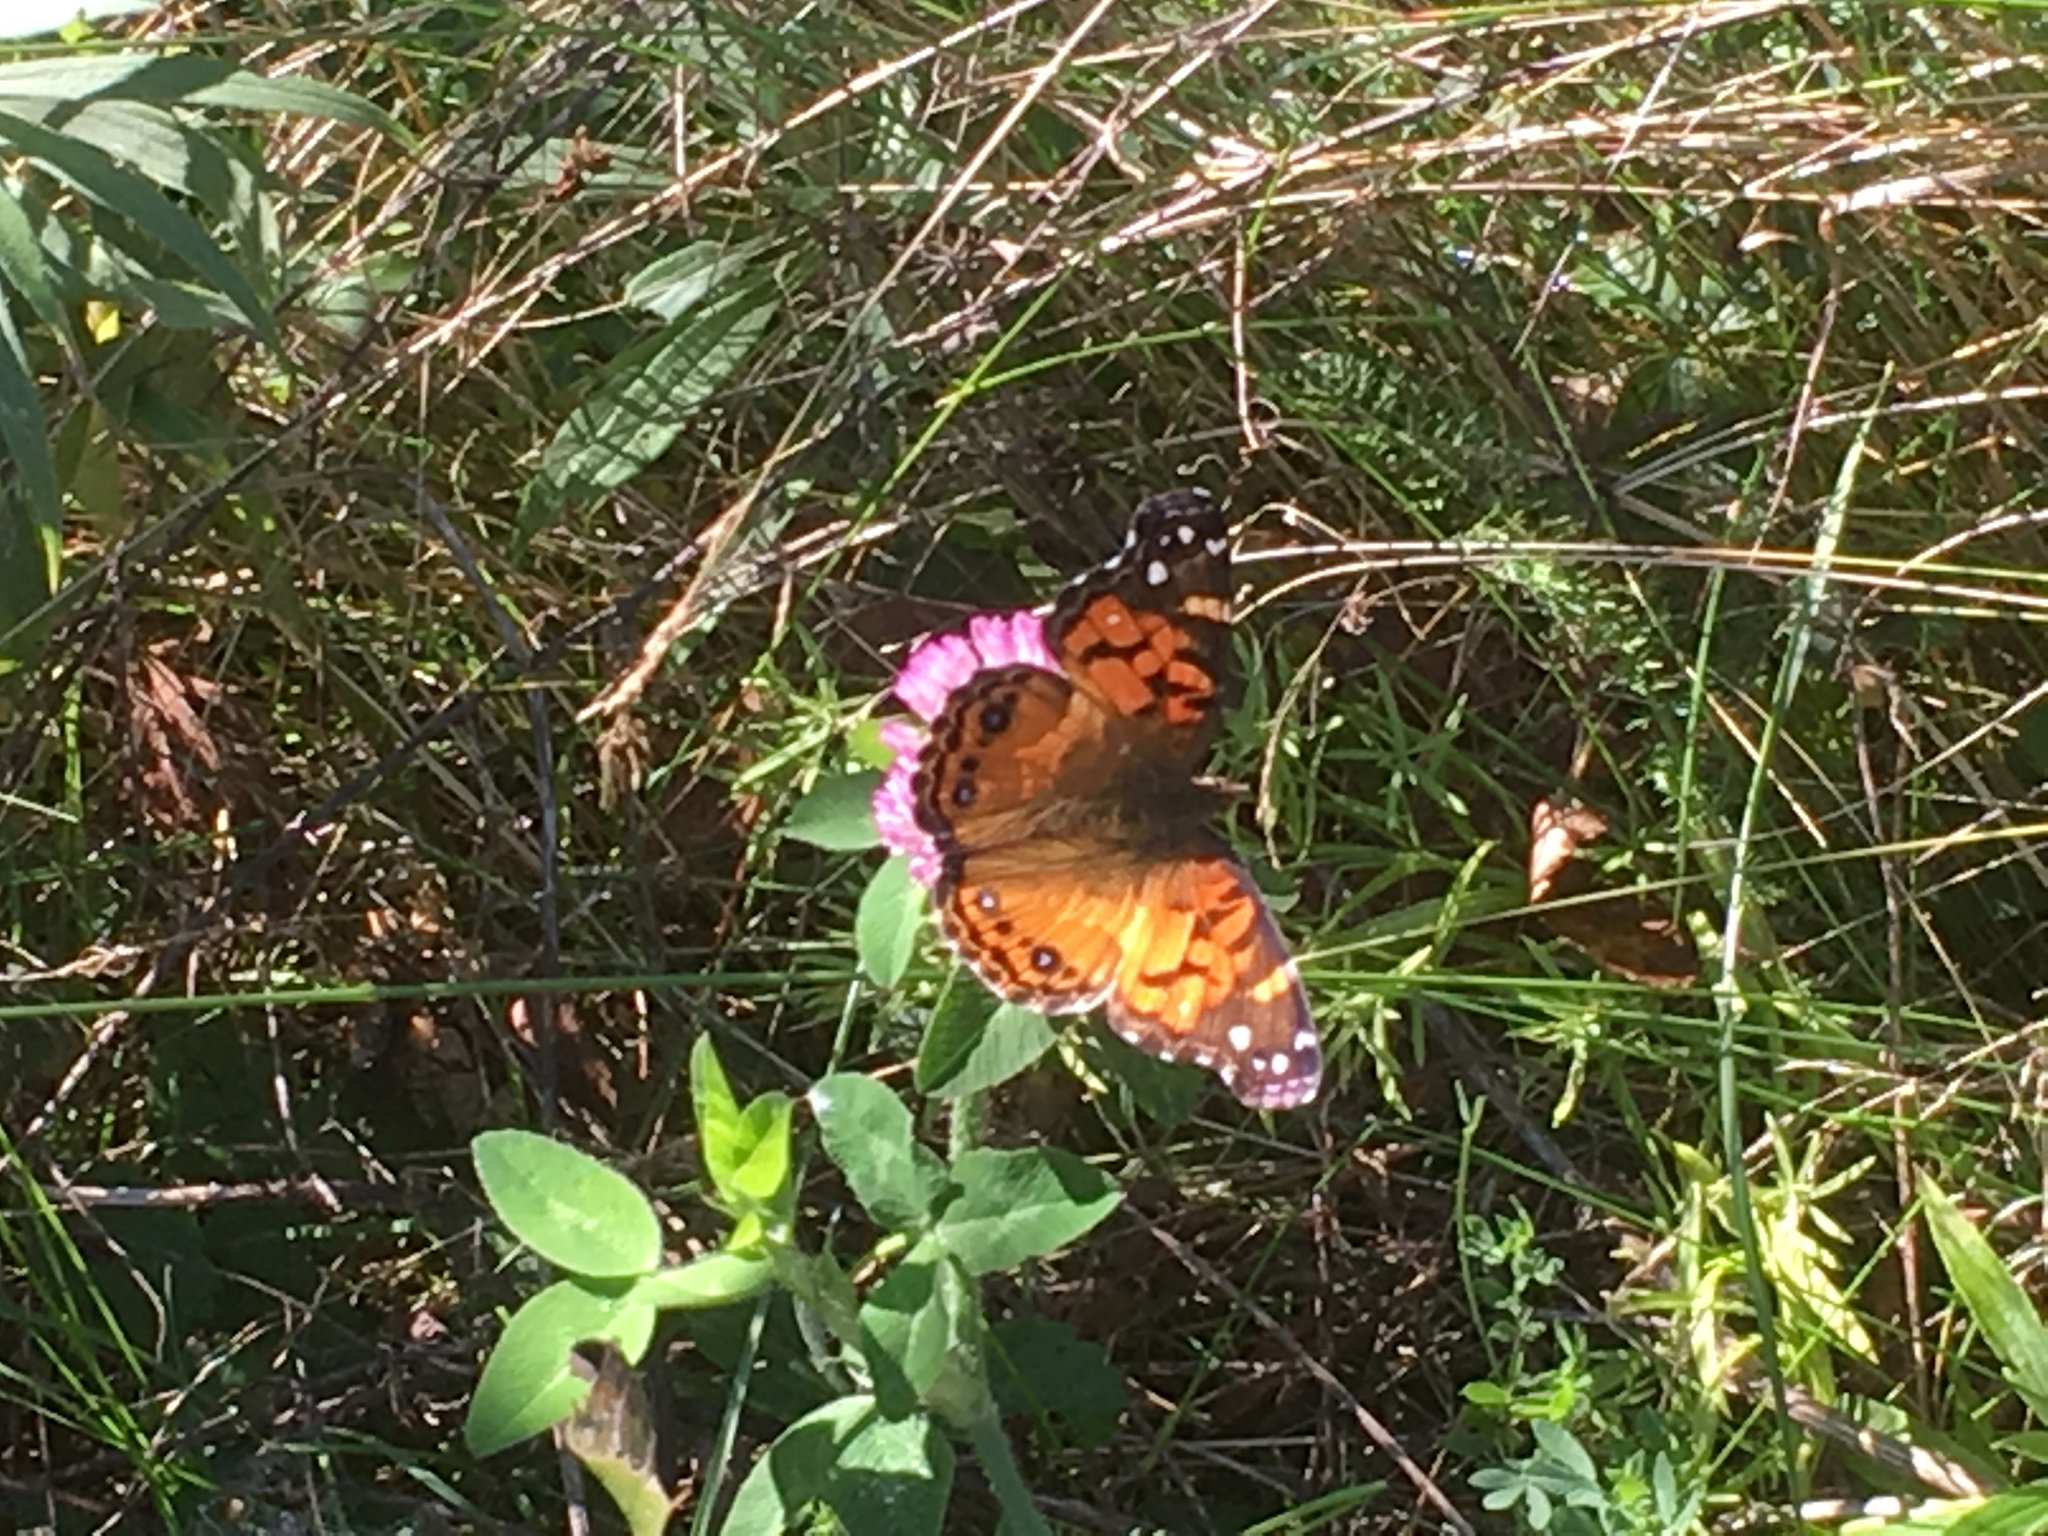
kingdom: Animalia
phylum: Arthropoda
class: Insecta
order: Lepidoptera
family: Nymphalidae
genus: Vanessa
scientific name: Vanessa virginiensis
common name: American lady
